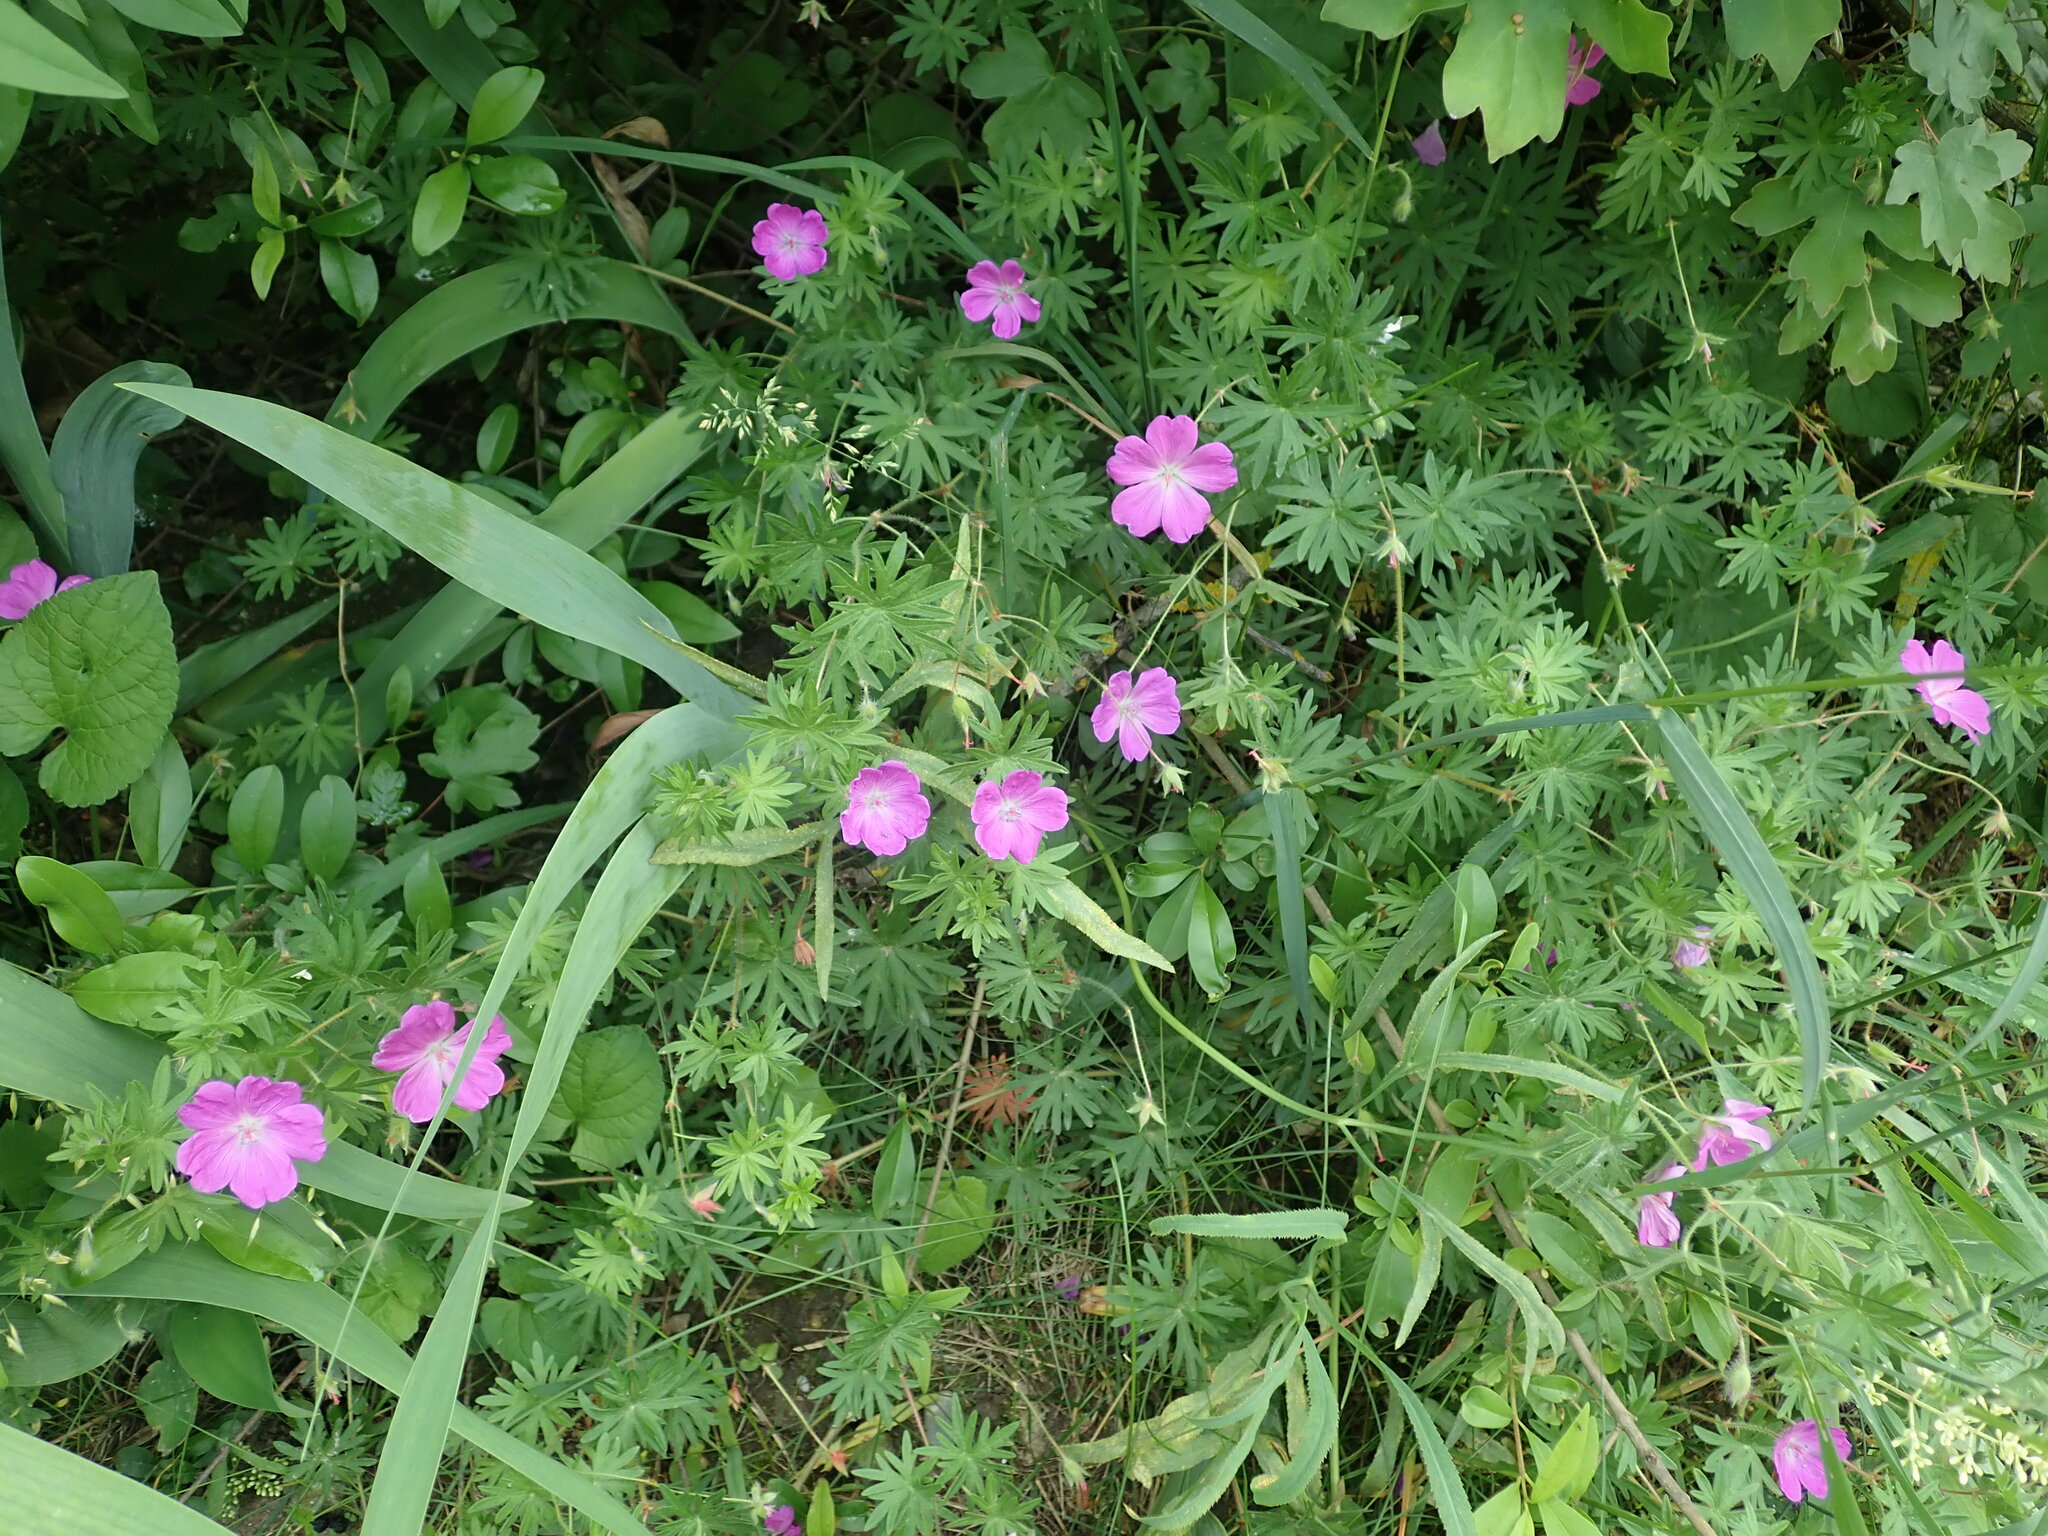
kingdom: Plantae
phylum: Tracheophyta
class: Magnoliopsida
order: Geraniales
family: Geraniaceae
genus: Geranium
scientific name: Geranium sanguineum
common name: Bloody crane's-bill
